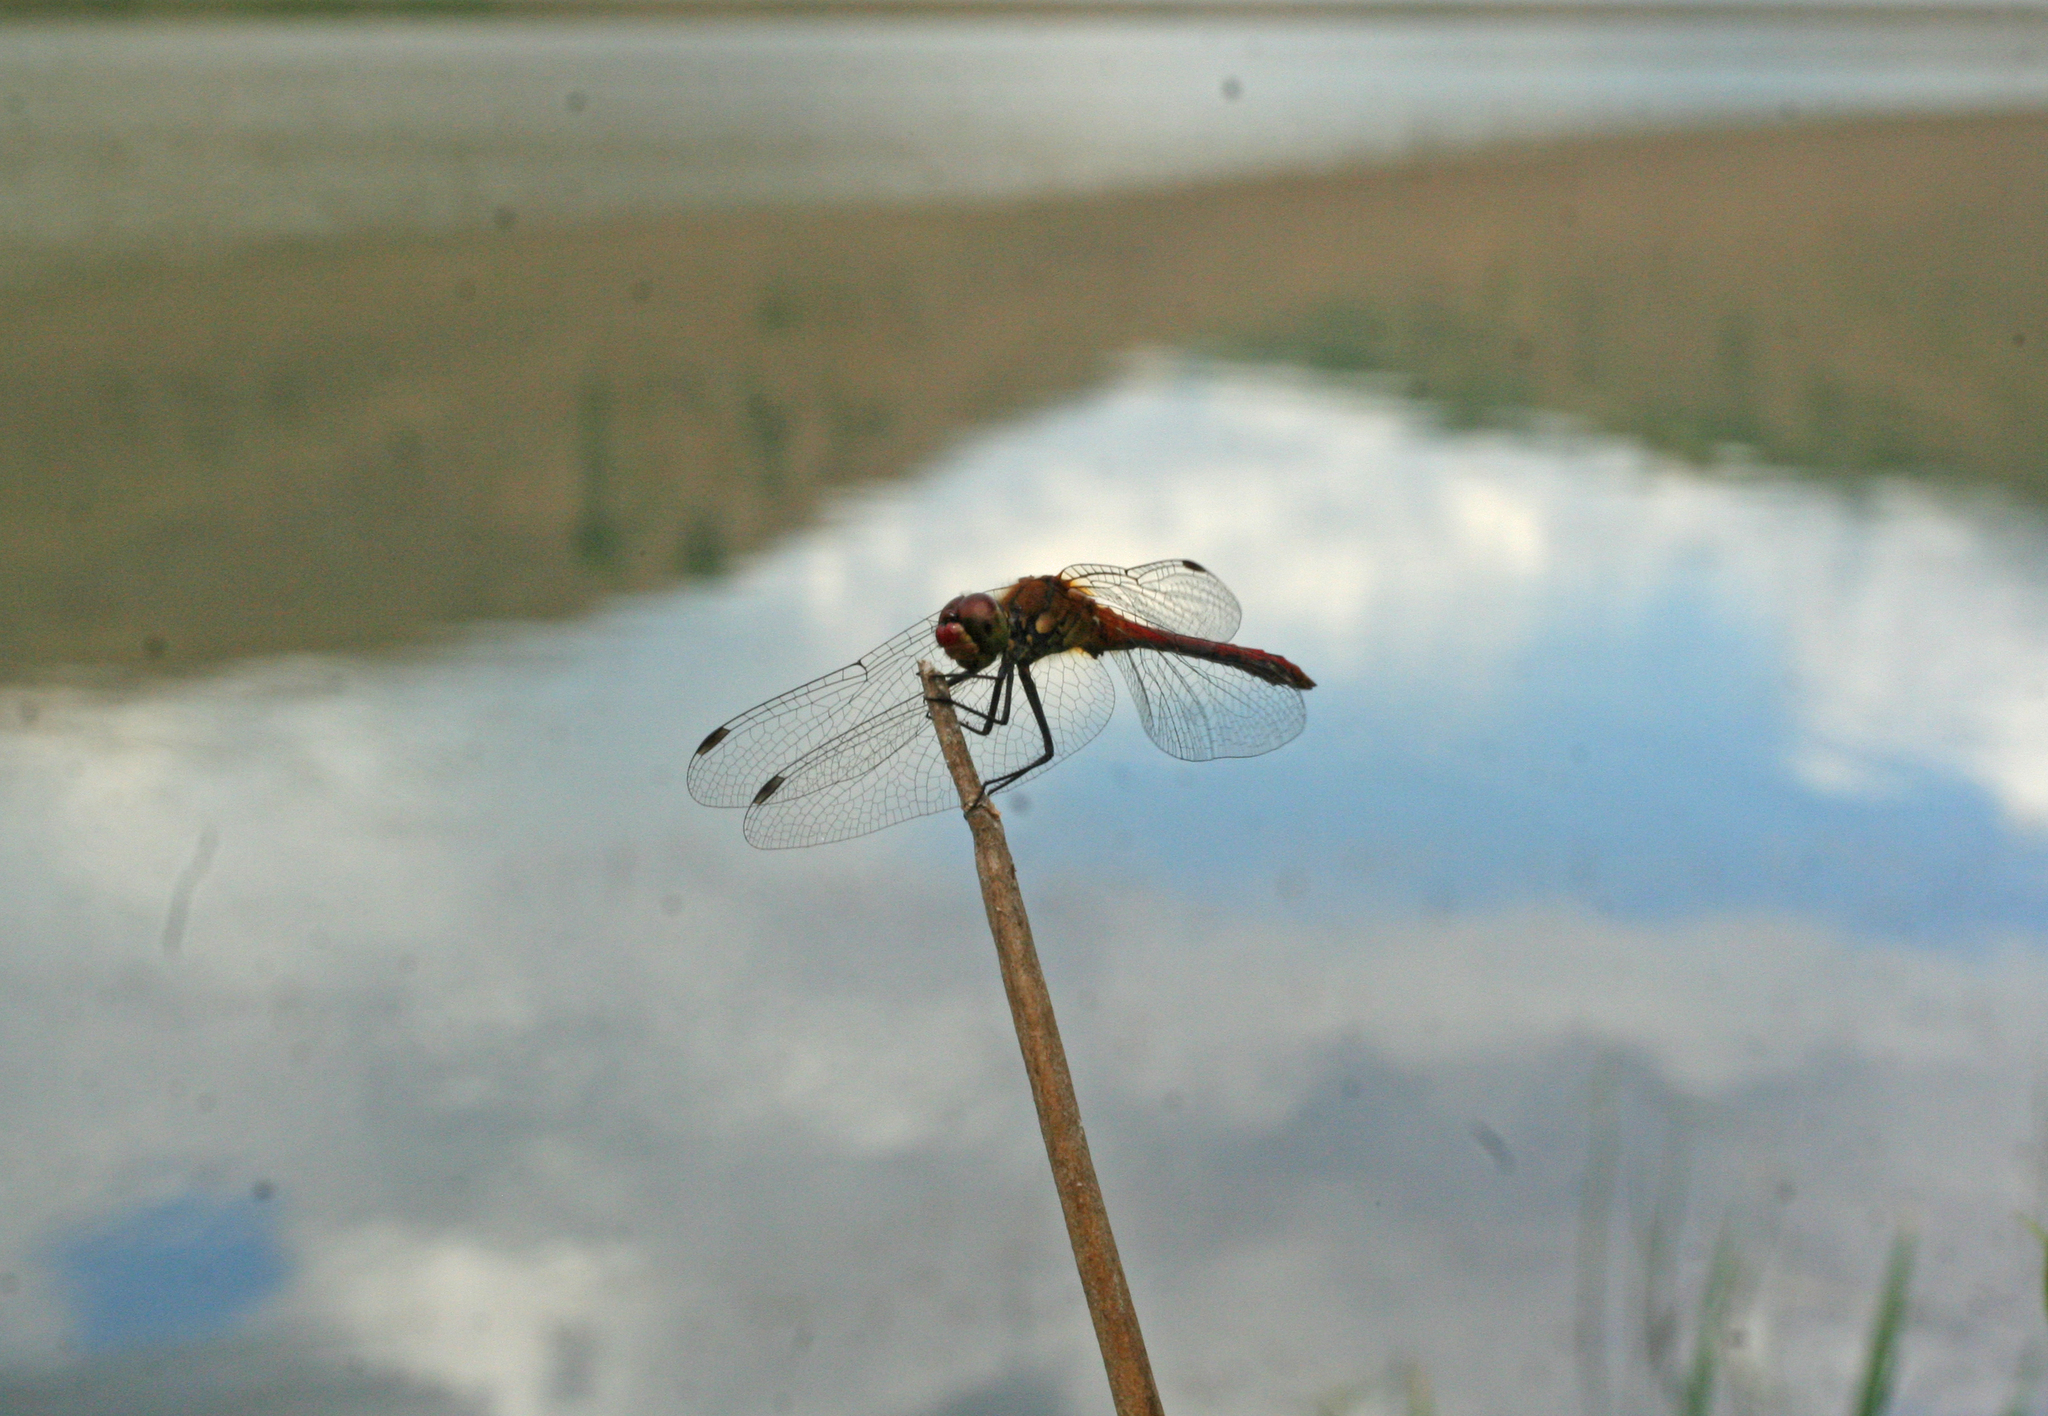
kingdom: Animalia
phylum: Arthropoda
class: Insecta
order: Odonata
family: Libellulidae
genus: Sympetrum
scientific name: Sympetrum sanguineum
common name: Ruddy darter
